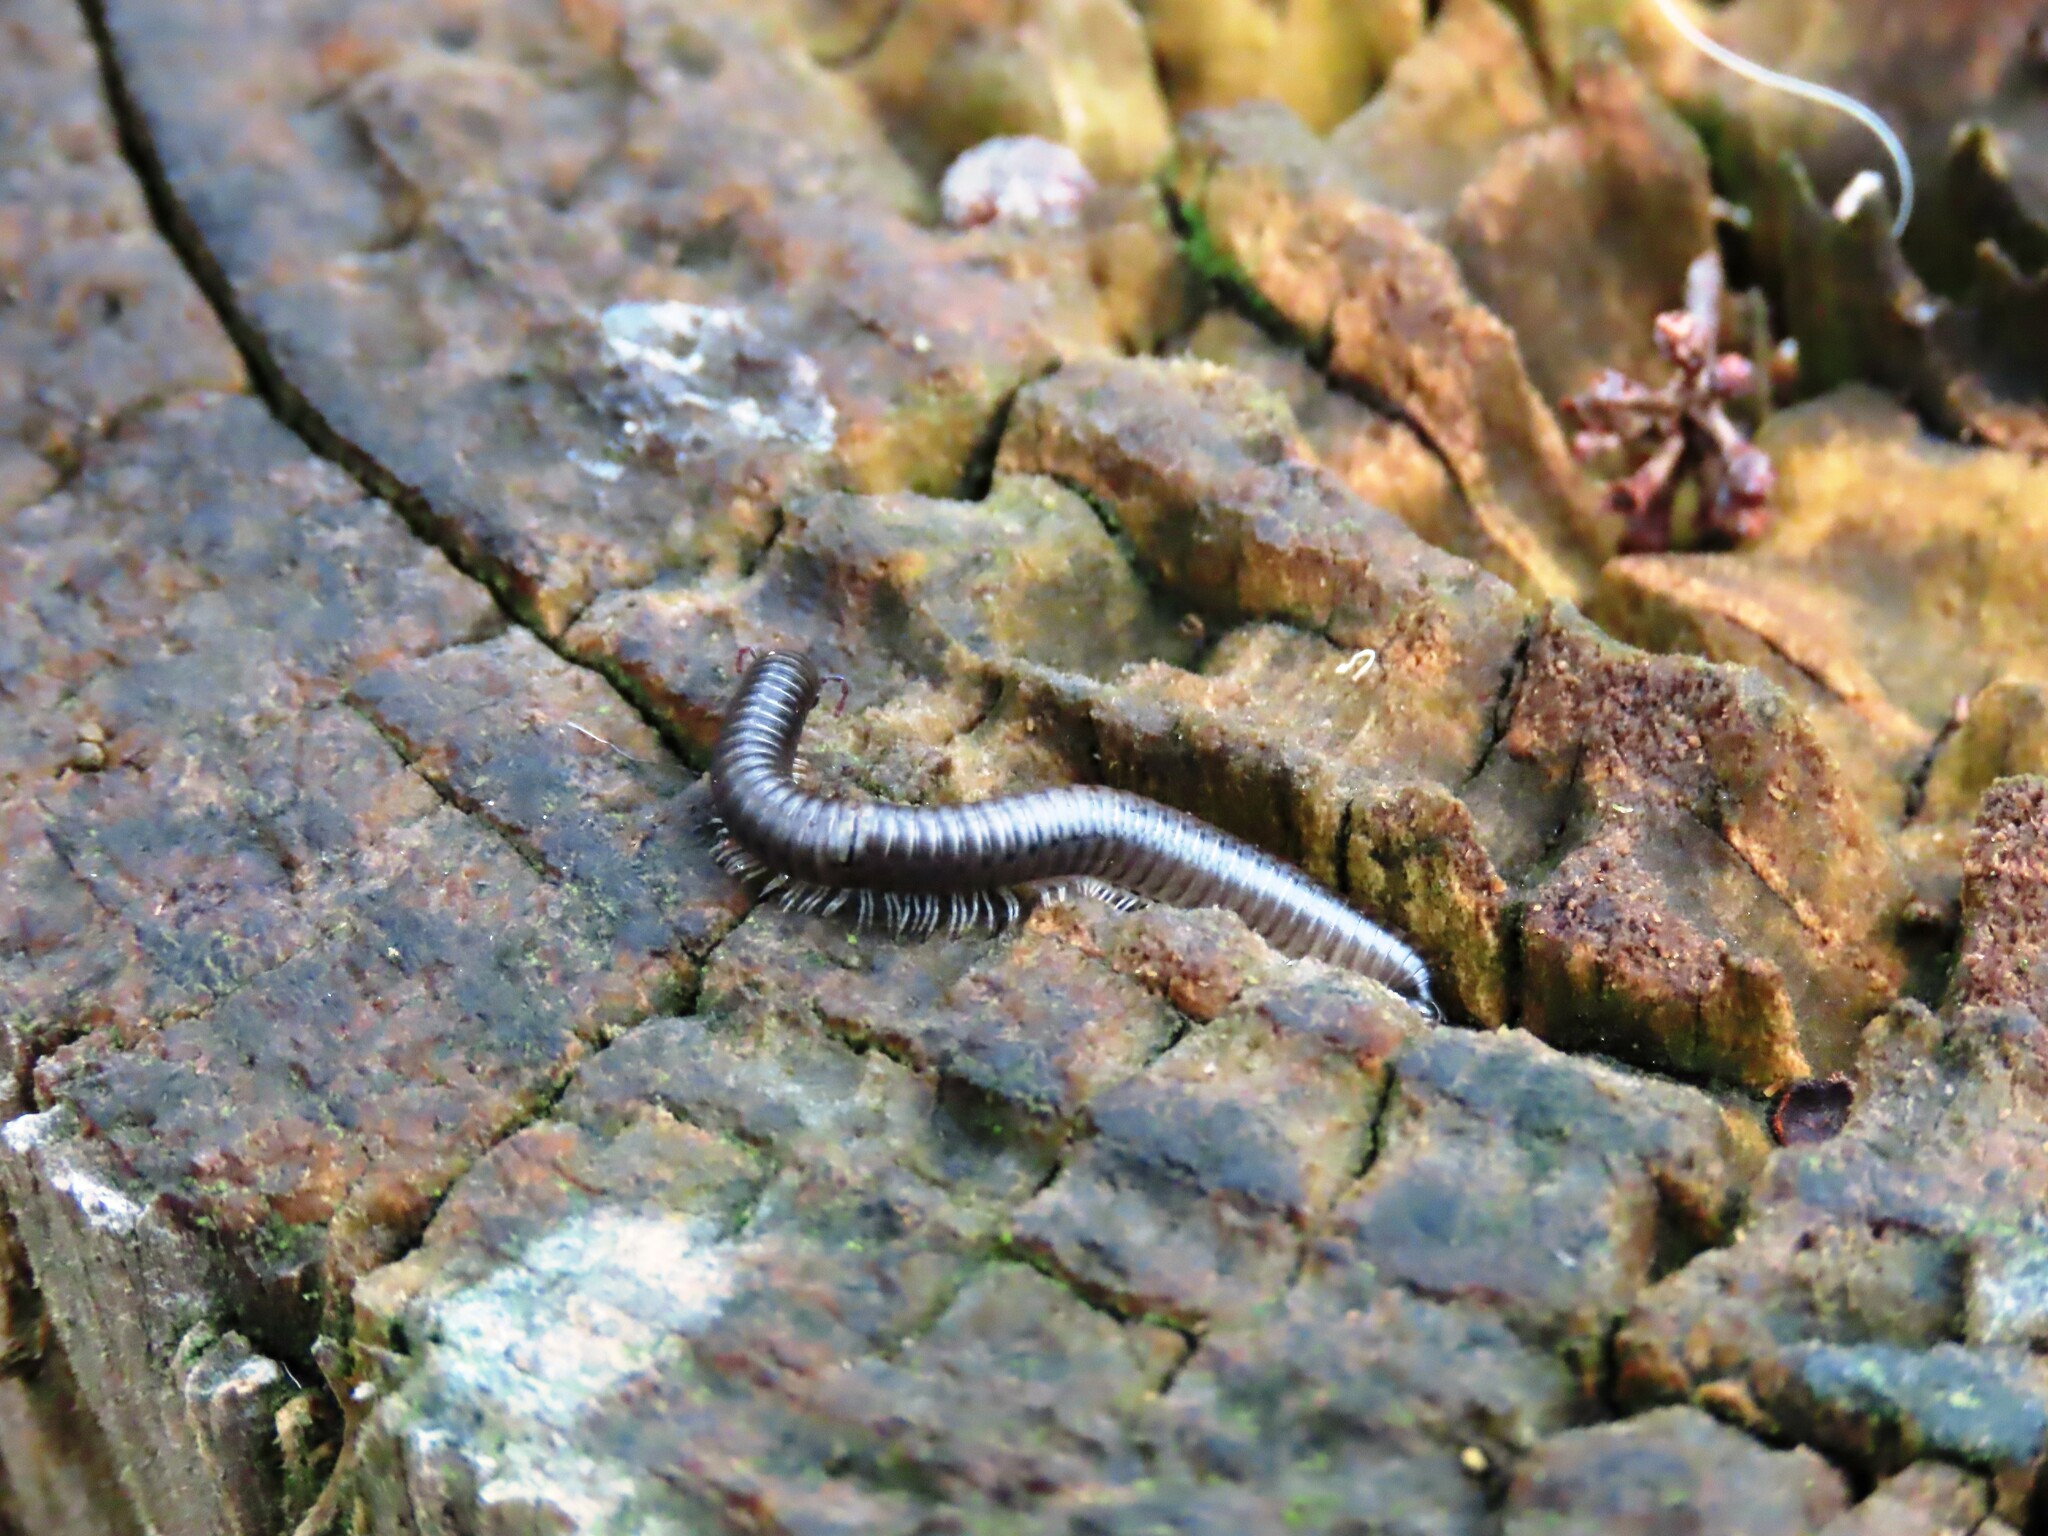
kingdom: Animalia
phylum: Arthropoda
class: Diplopoda
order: Julida
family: Julidae
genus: Ommatoiulus
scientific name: Ommatoiulus moreleti
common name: Portuguese millipede
